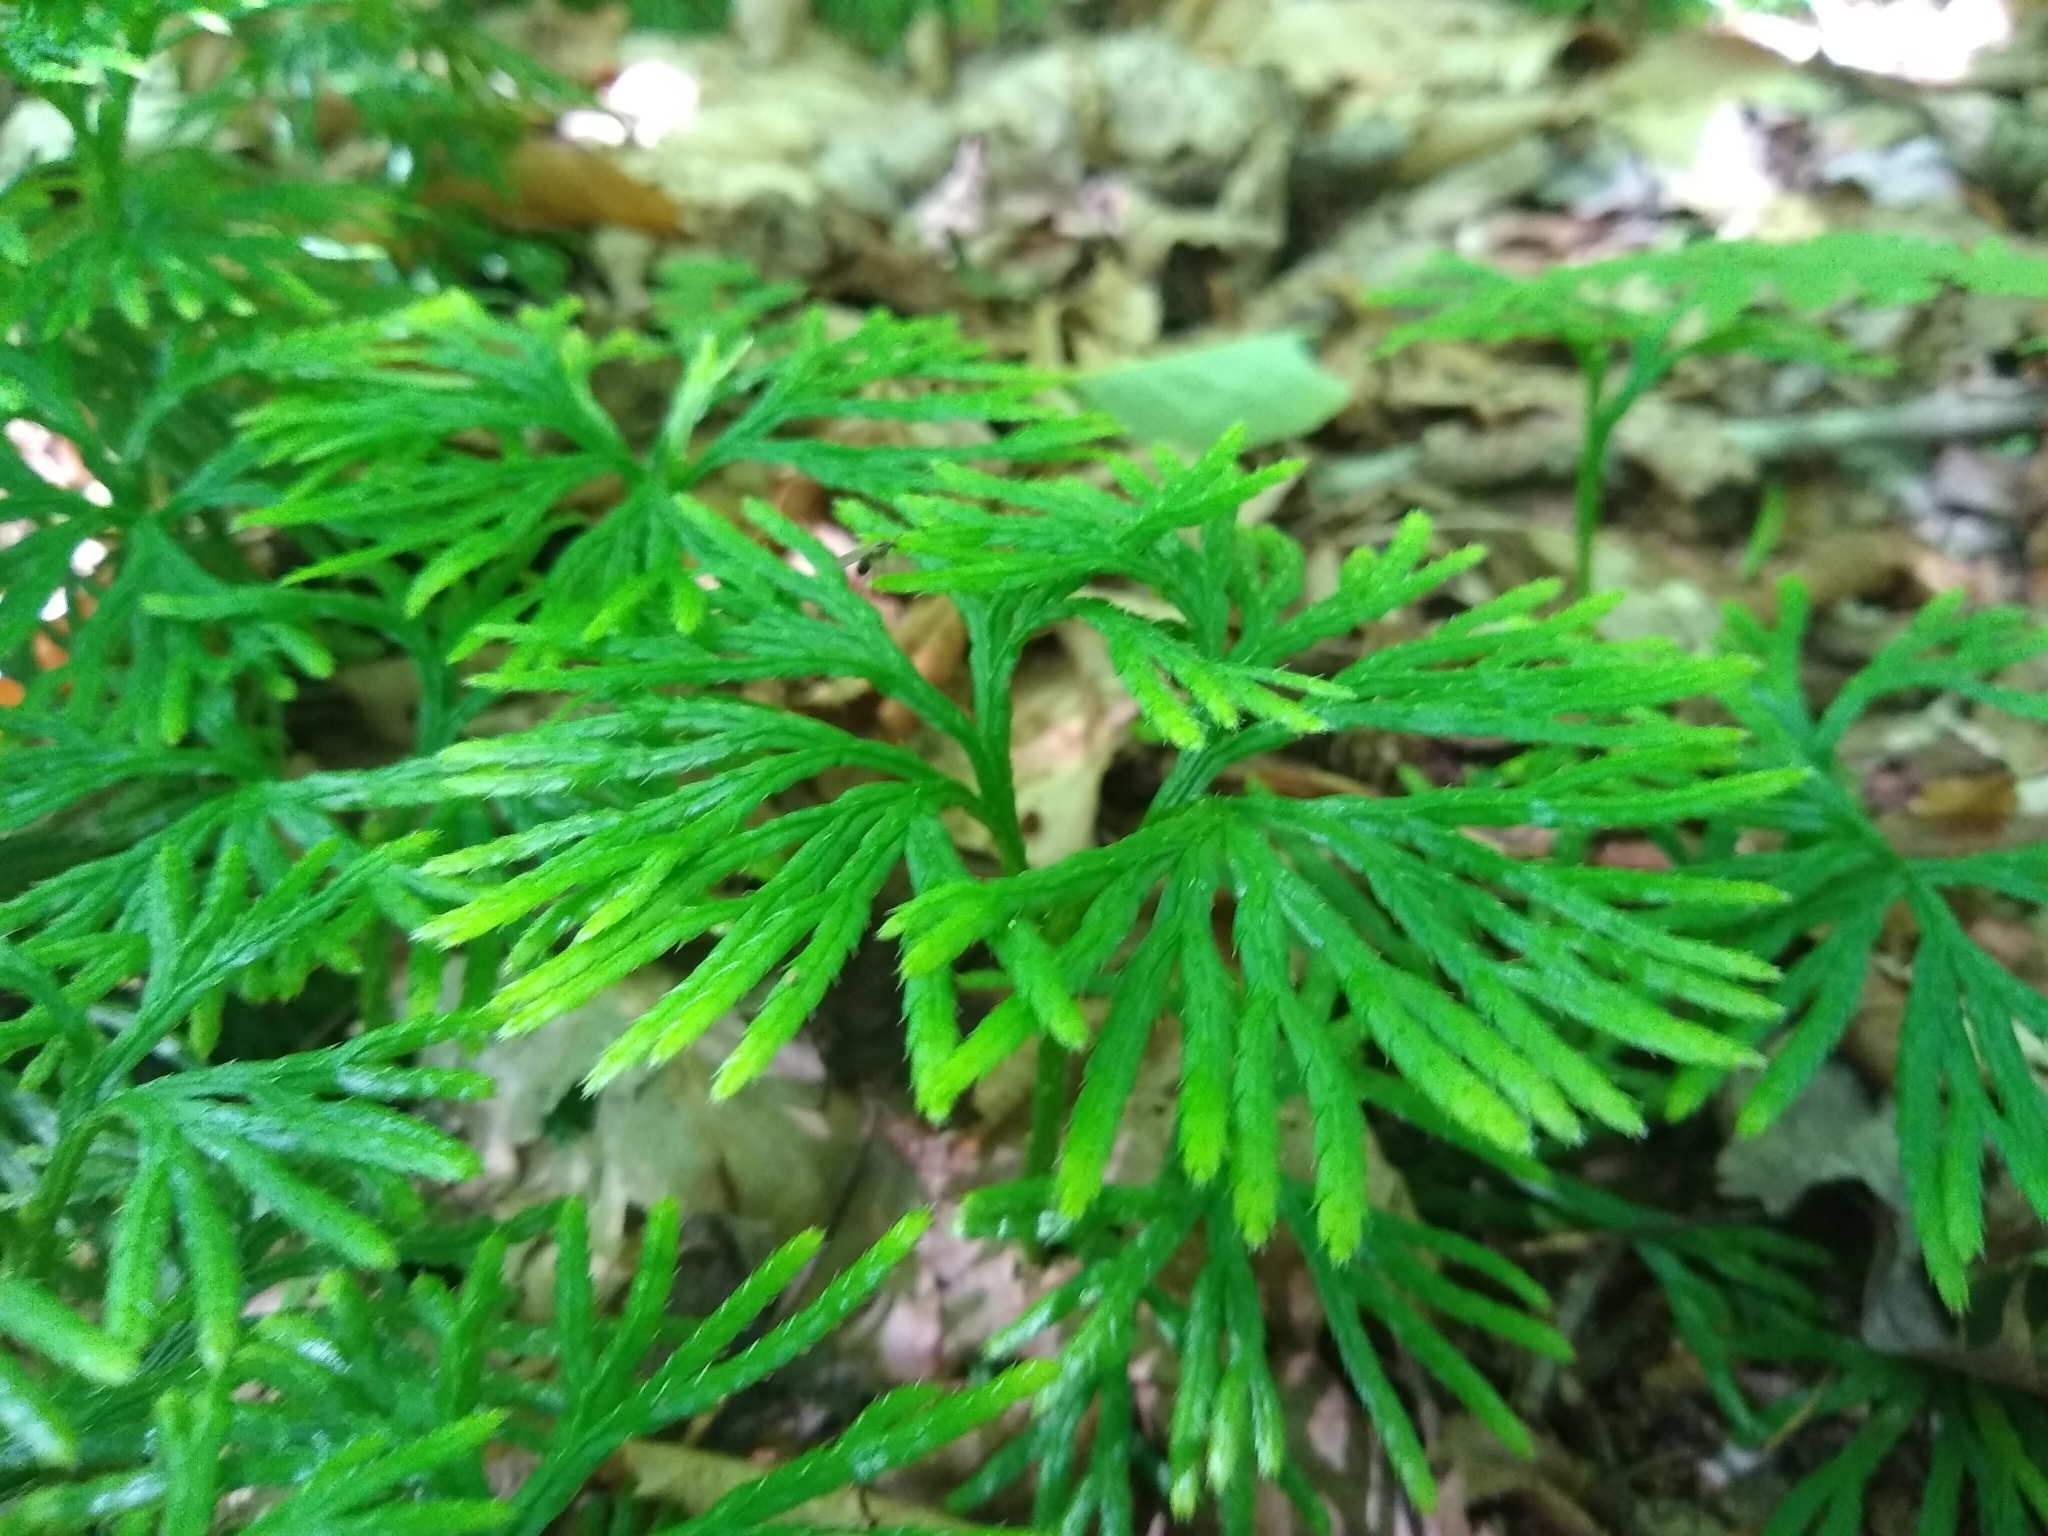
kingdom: Plantae
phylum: Tracheophyta
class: Lycopodiopsida
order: Lycopodiales
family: Lycopodiaceae
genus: Diphasiastrum
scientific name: Diphasiastrum digitatum
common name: Southern running-pine
